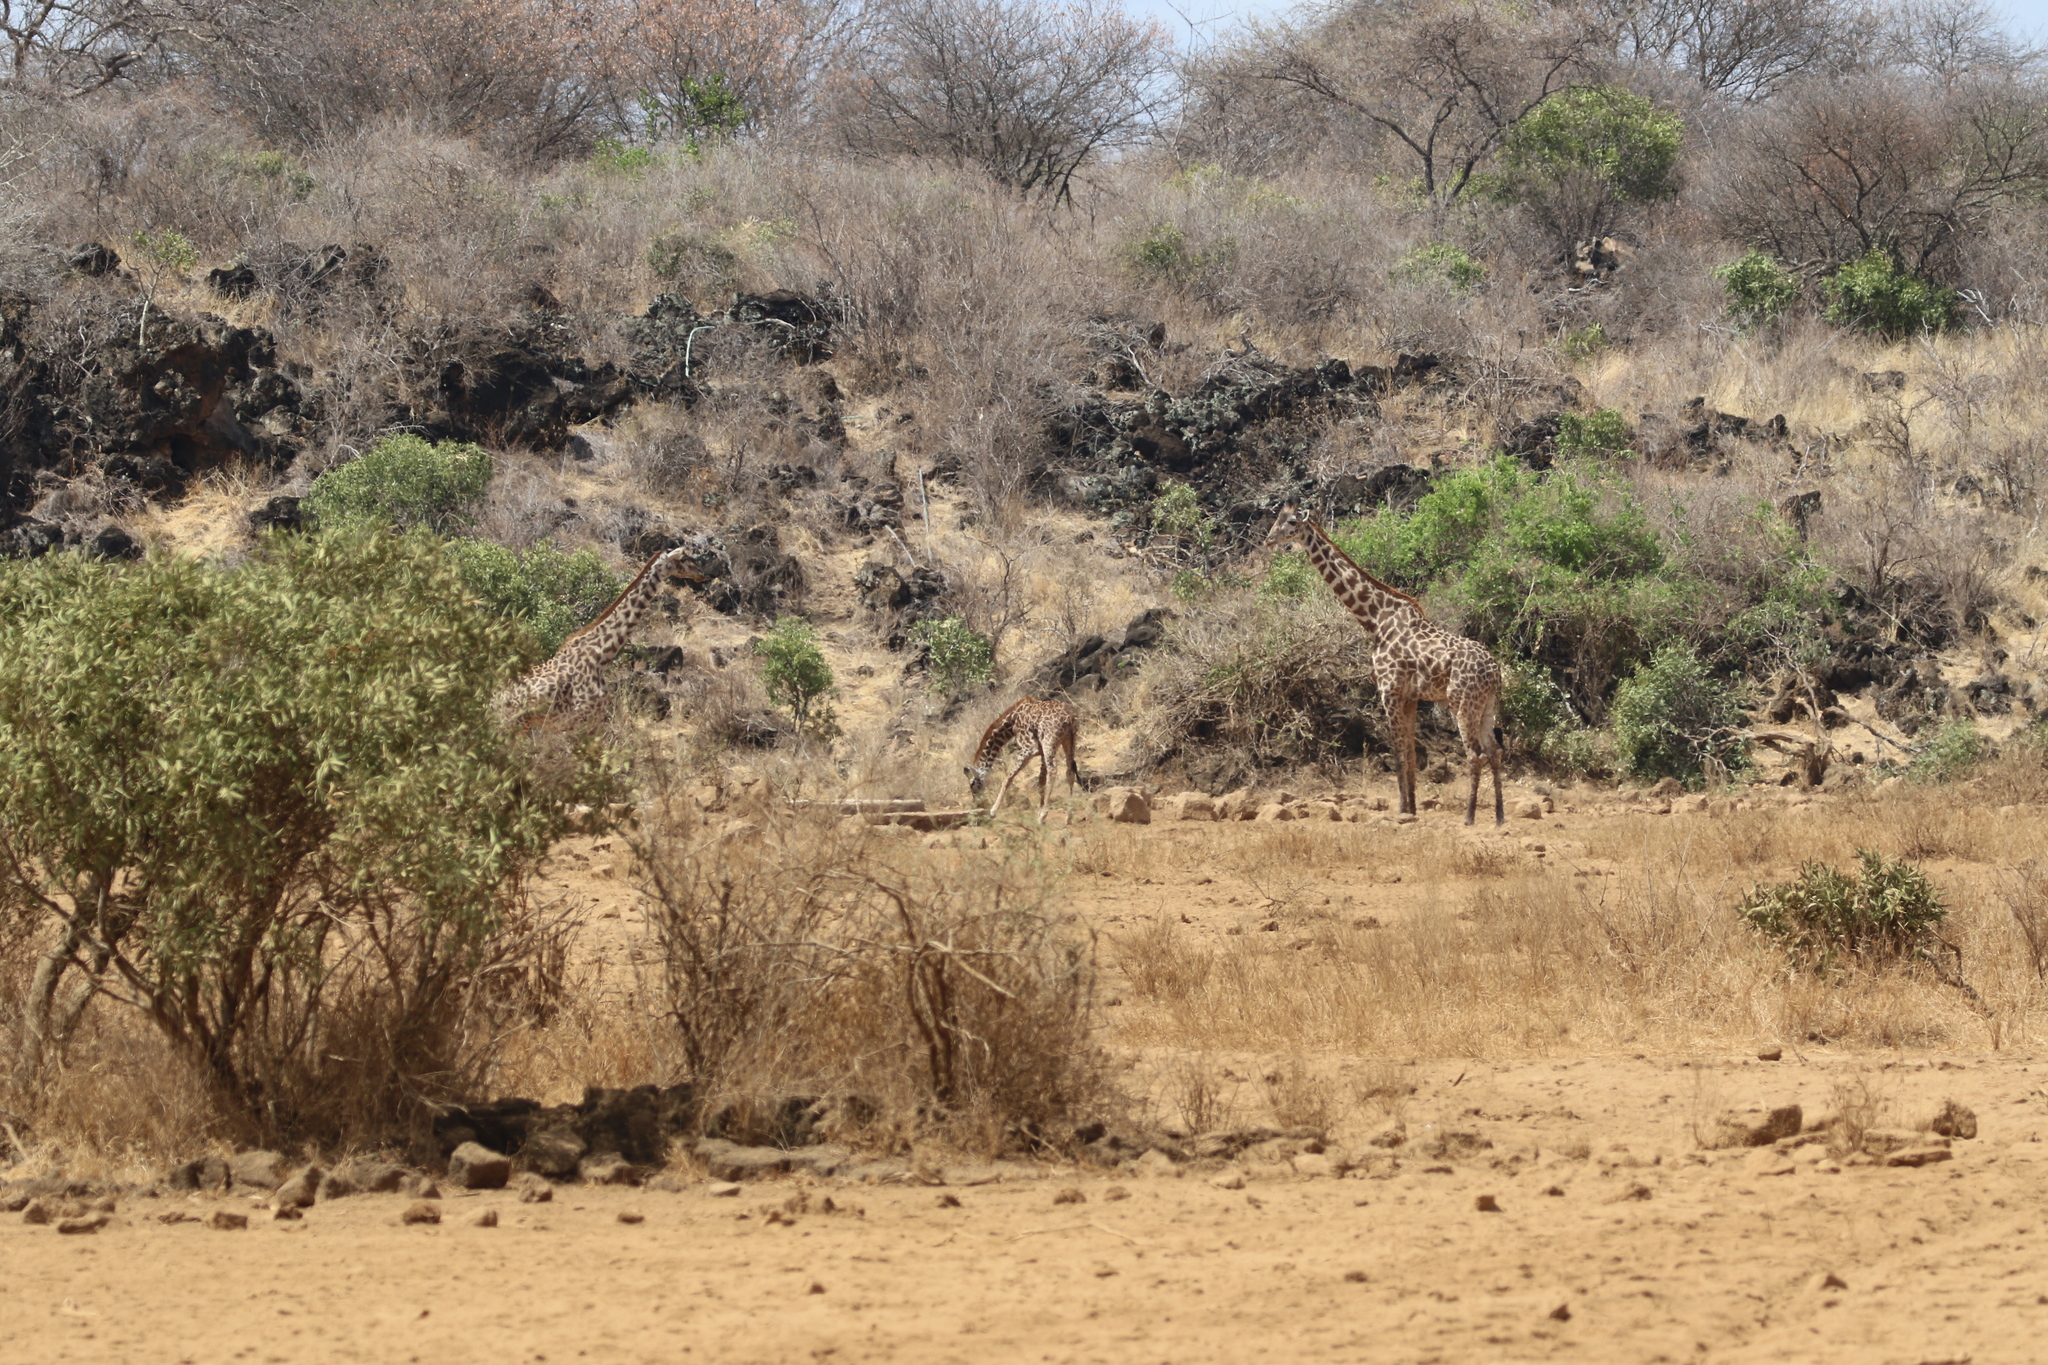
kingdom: Animalia
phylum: Chordata
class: Mammalia
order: Artiodactyla
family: Giraffidae
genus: Giraffa
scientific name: Giraffa tippelskirchi
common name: Masai giraffe
